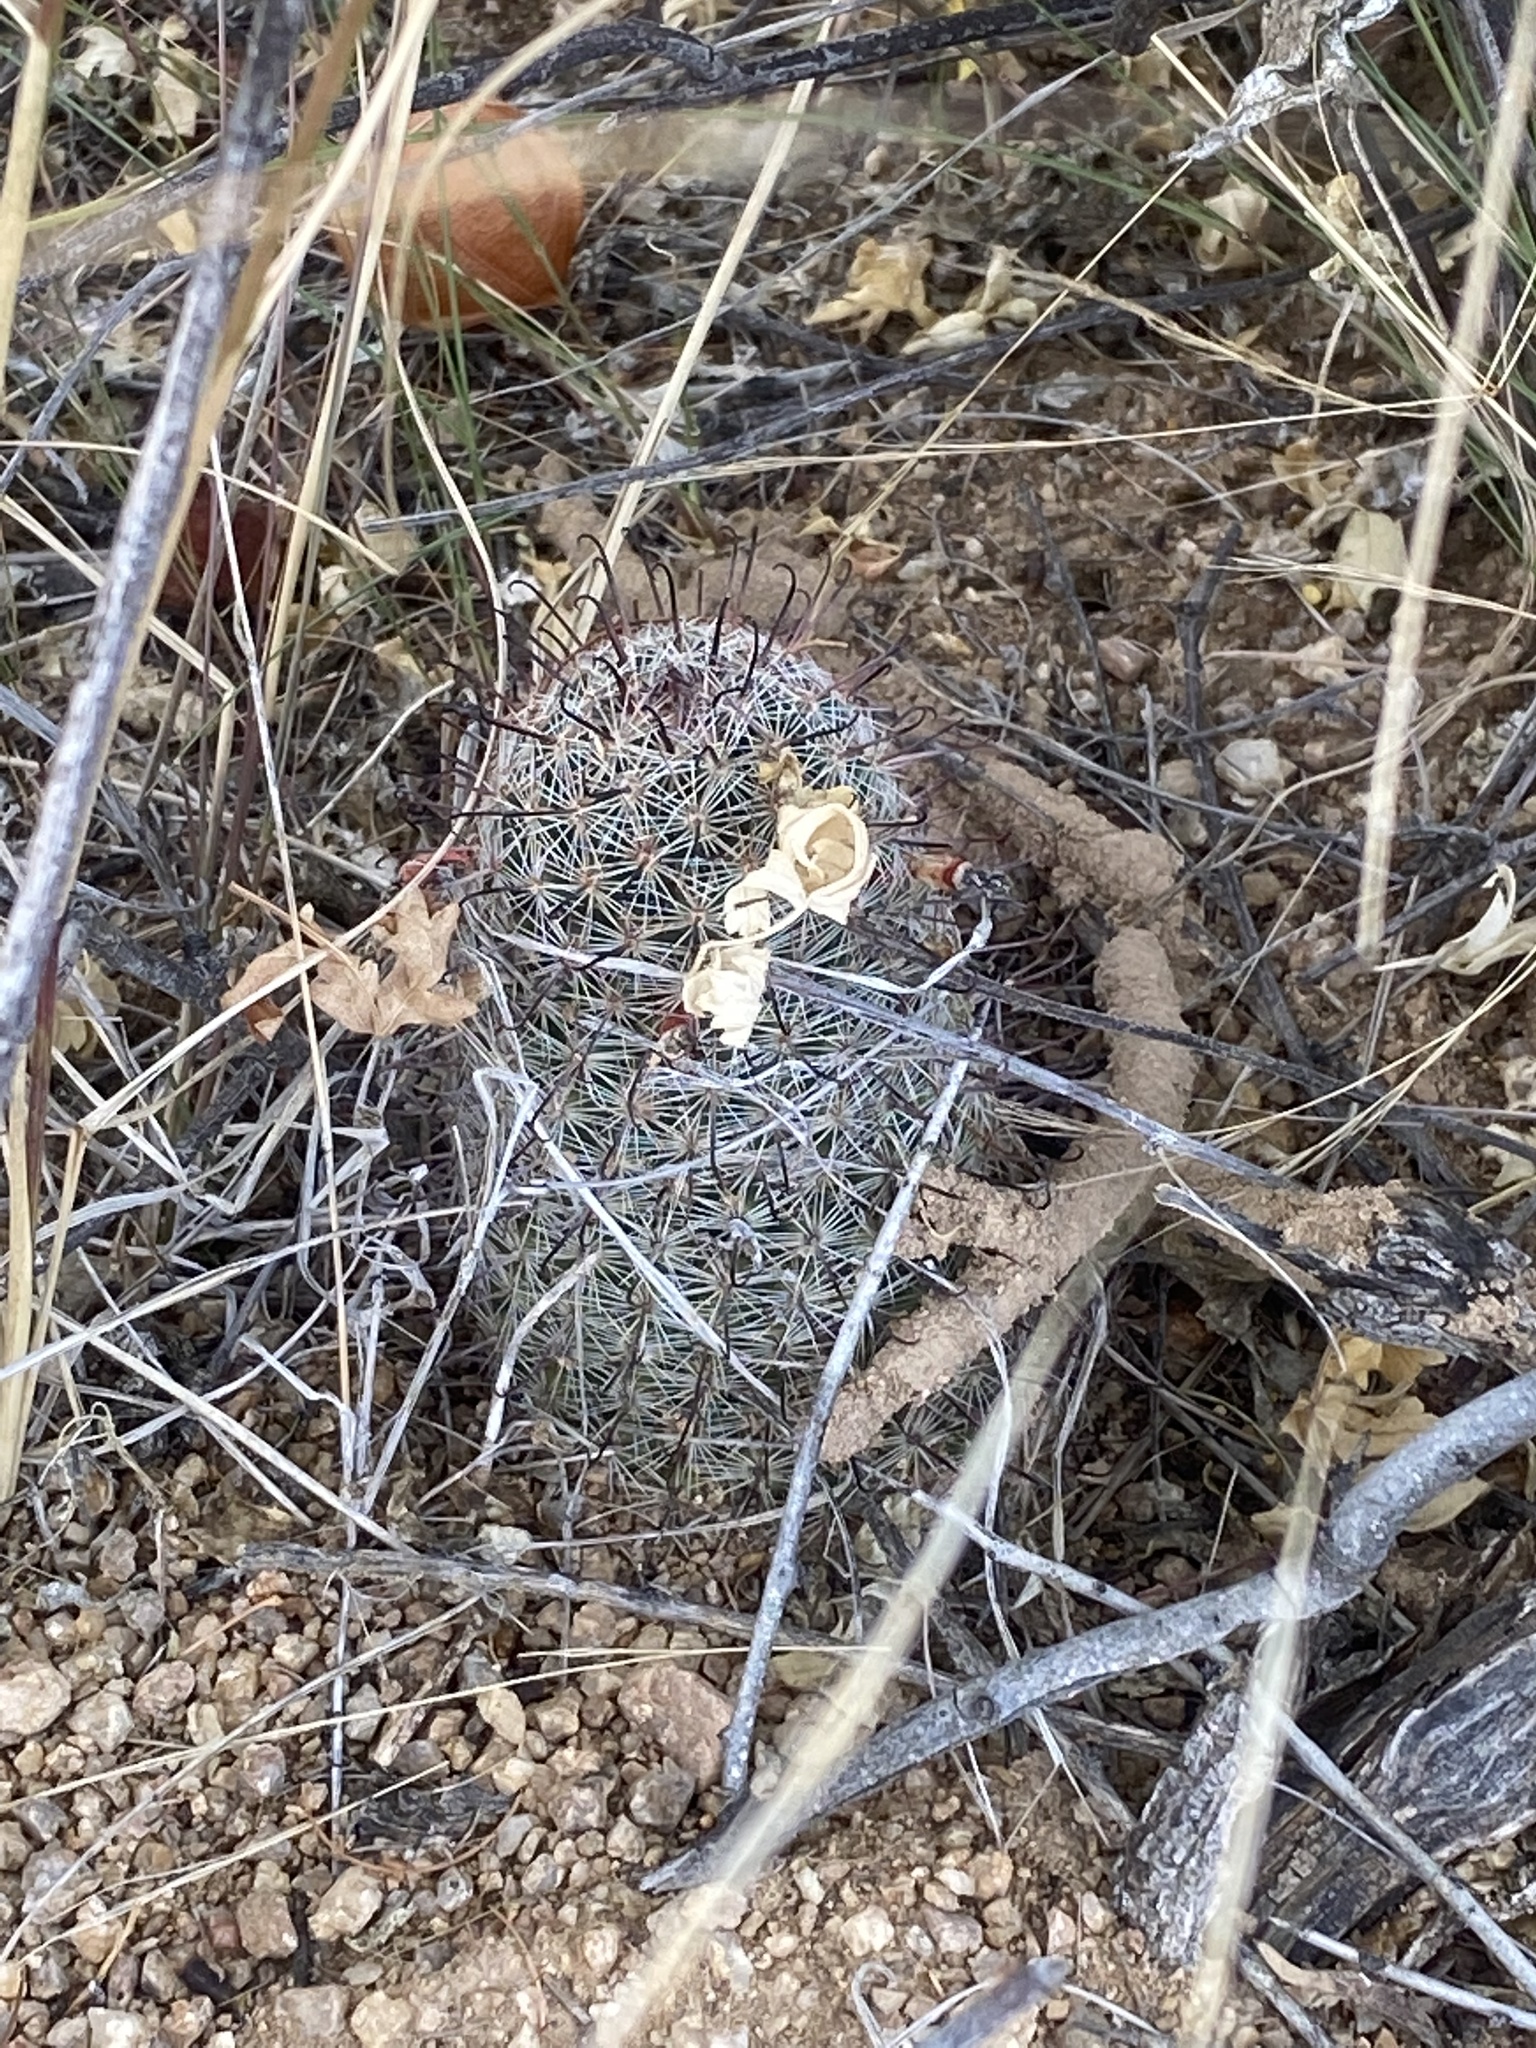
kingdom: Plantae
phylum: Tracheophyta
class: Magnoliopsida
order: Caryophyllales
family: Cactaceae
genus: Cochemiea
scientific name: Cochemiea grahamii
